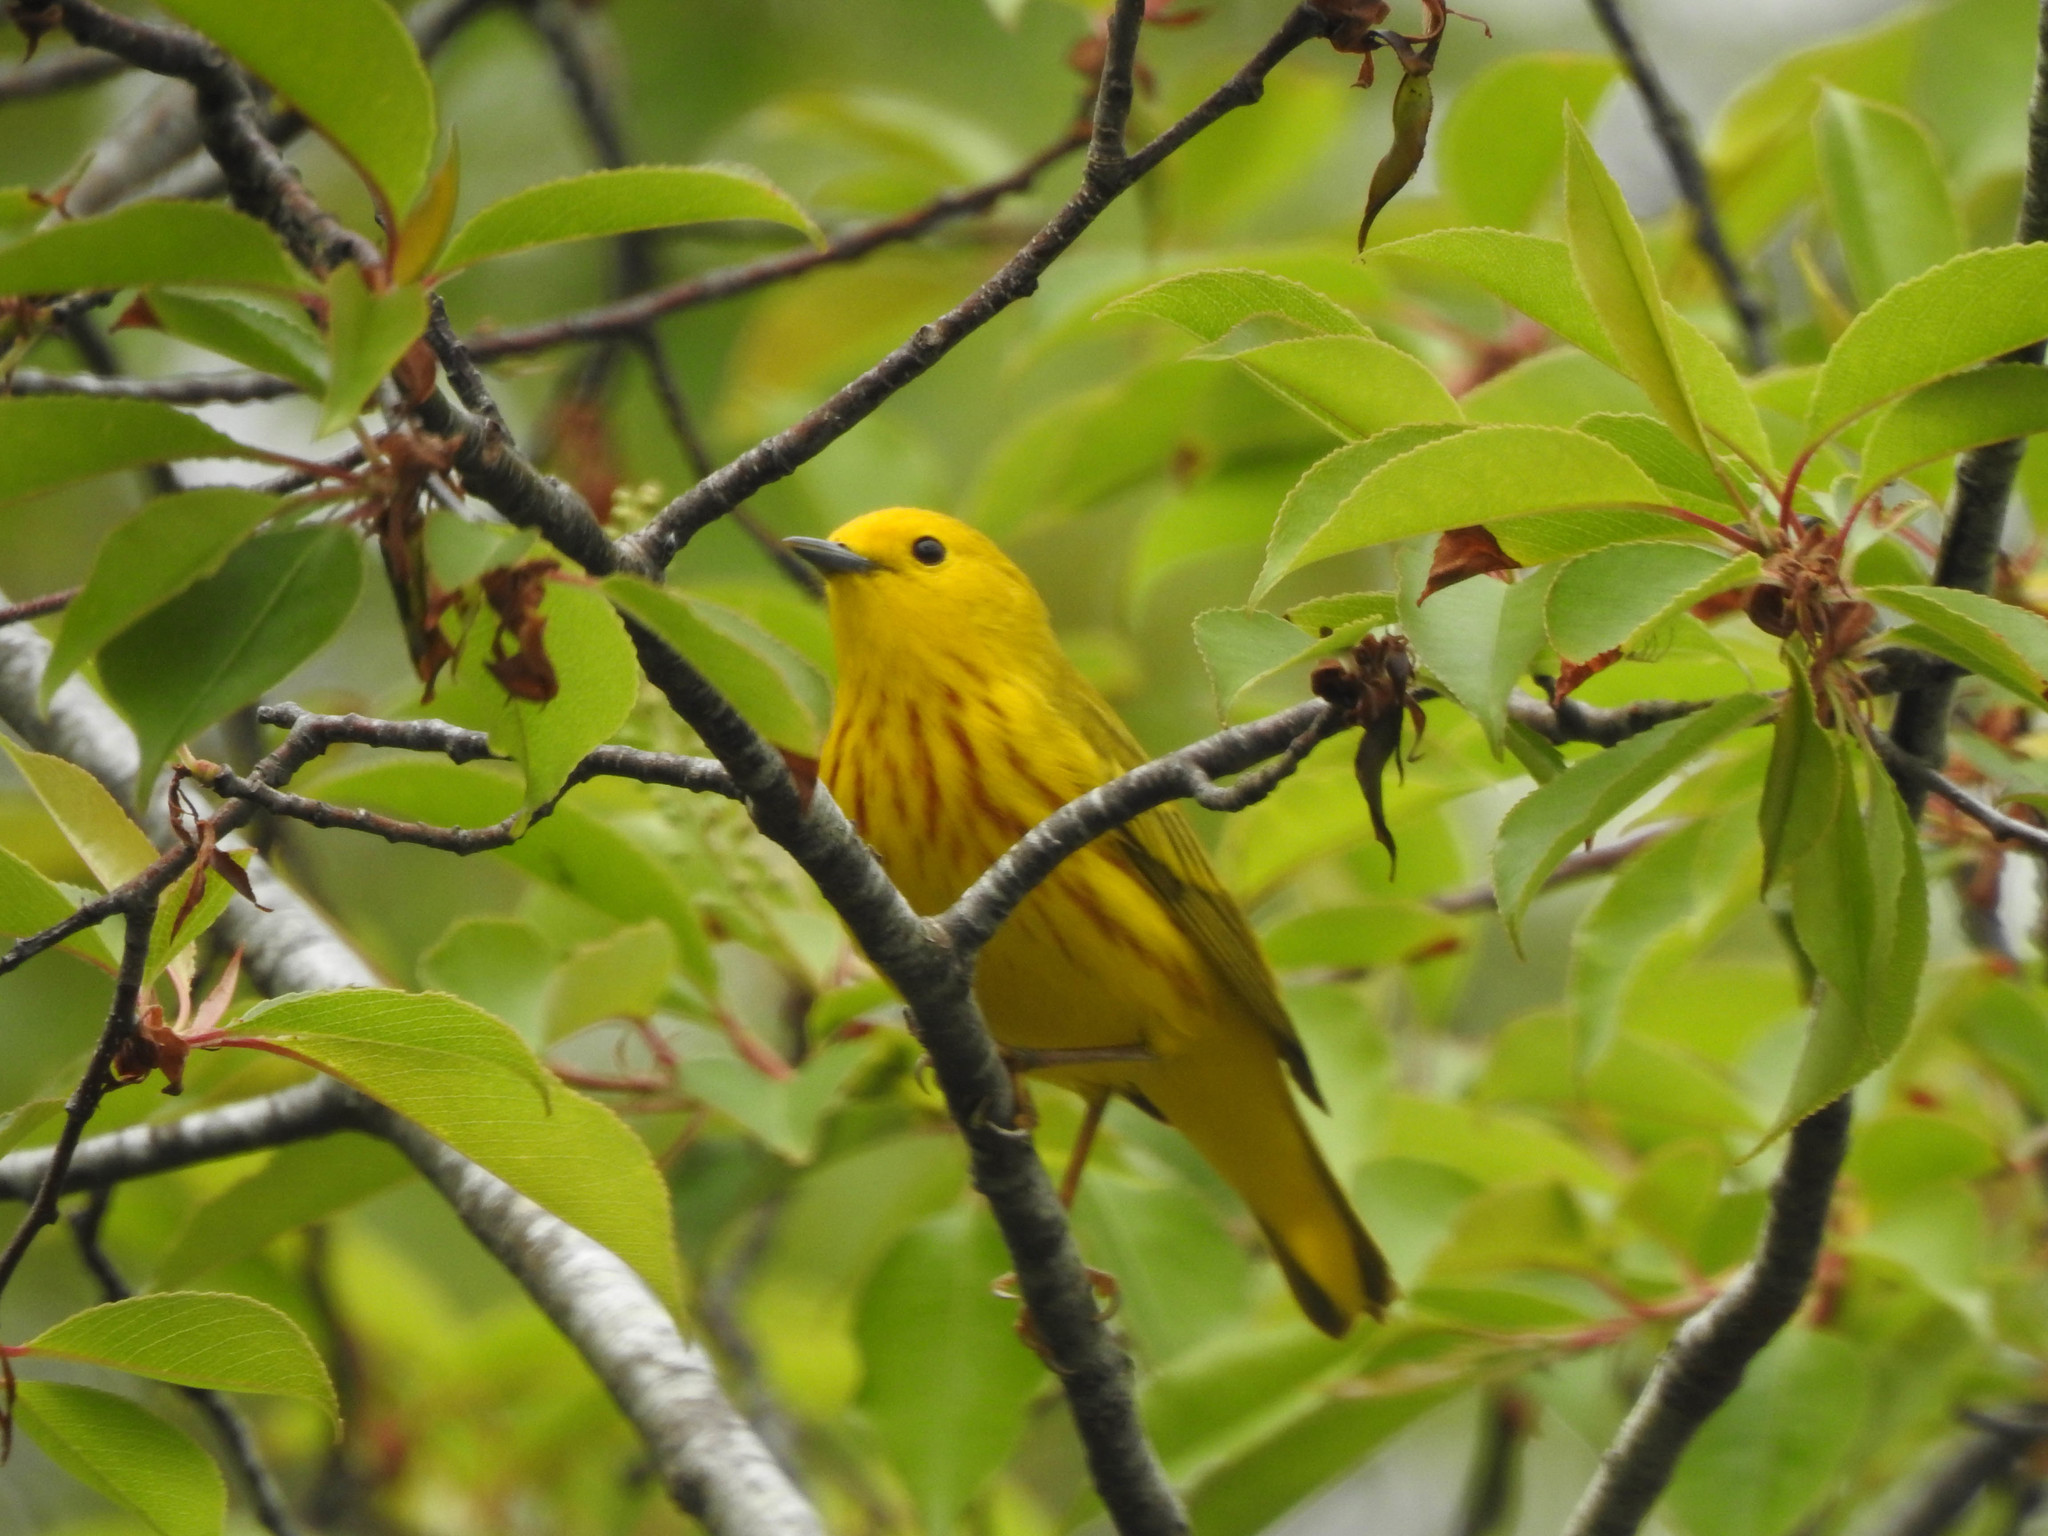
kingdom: Animalia
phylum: Chordata
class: Aves
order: Passeriformes
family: Parulidae
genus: Setophaga
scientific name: Setophaga petechia
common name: Yellow warbler
